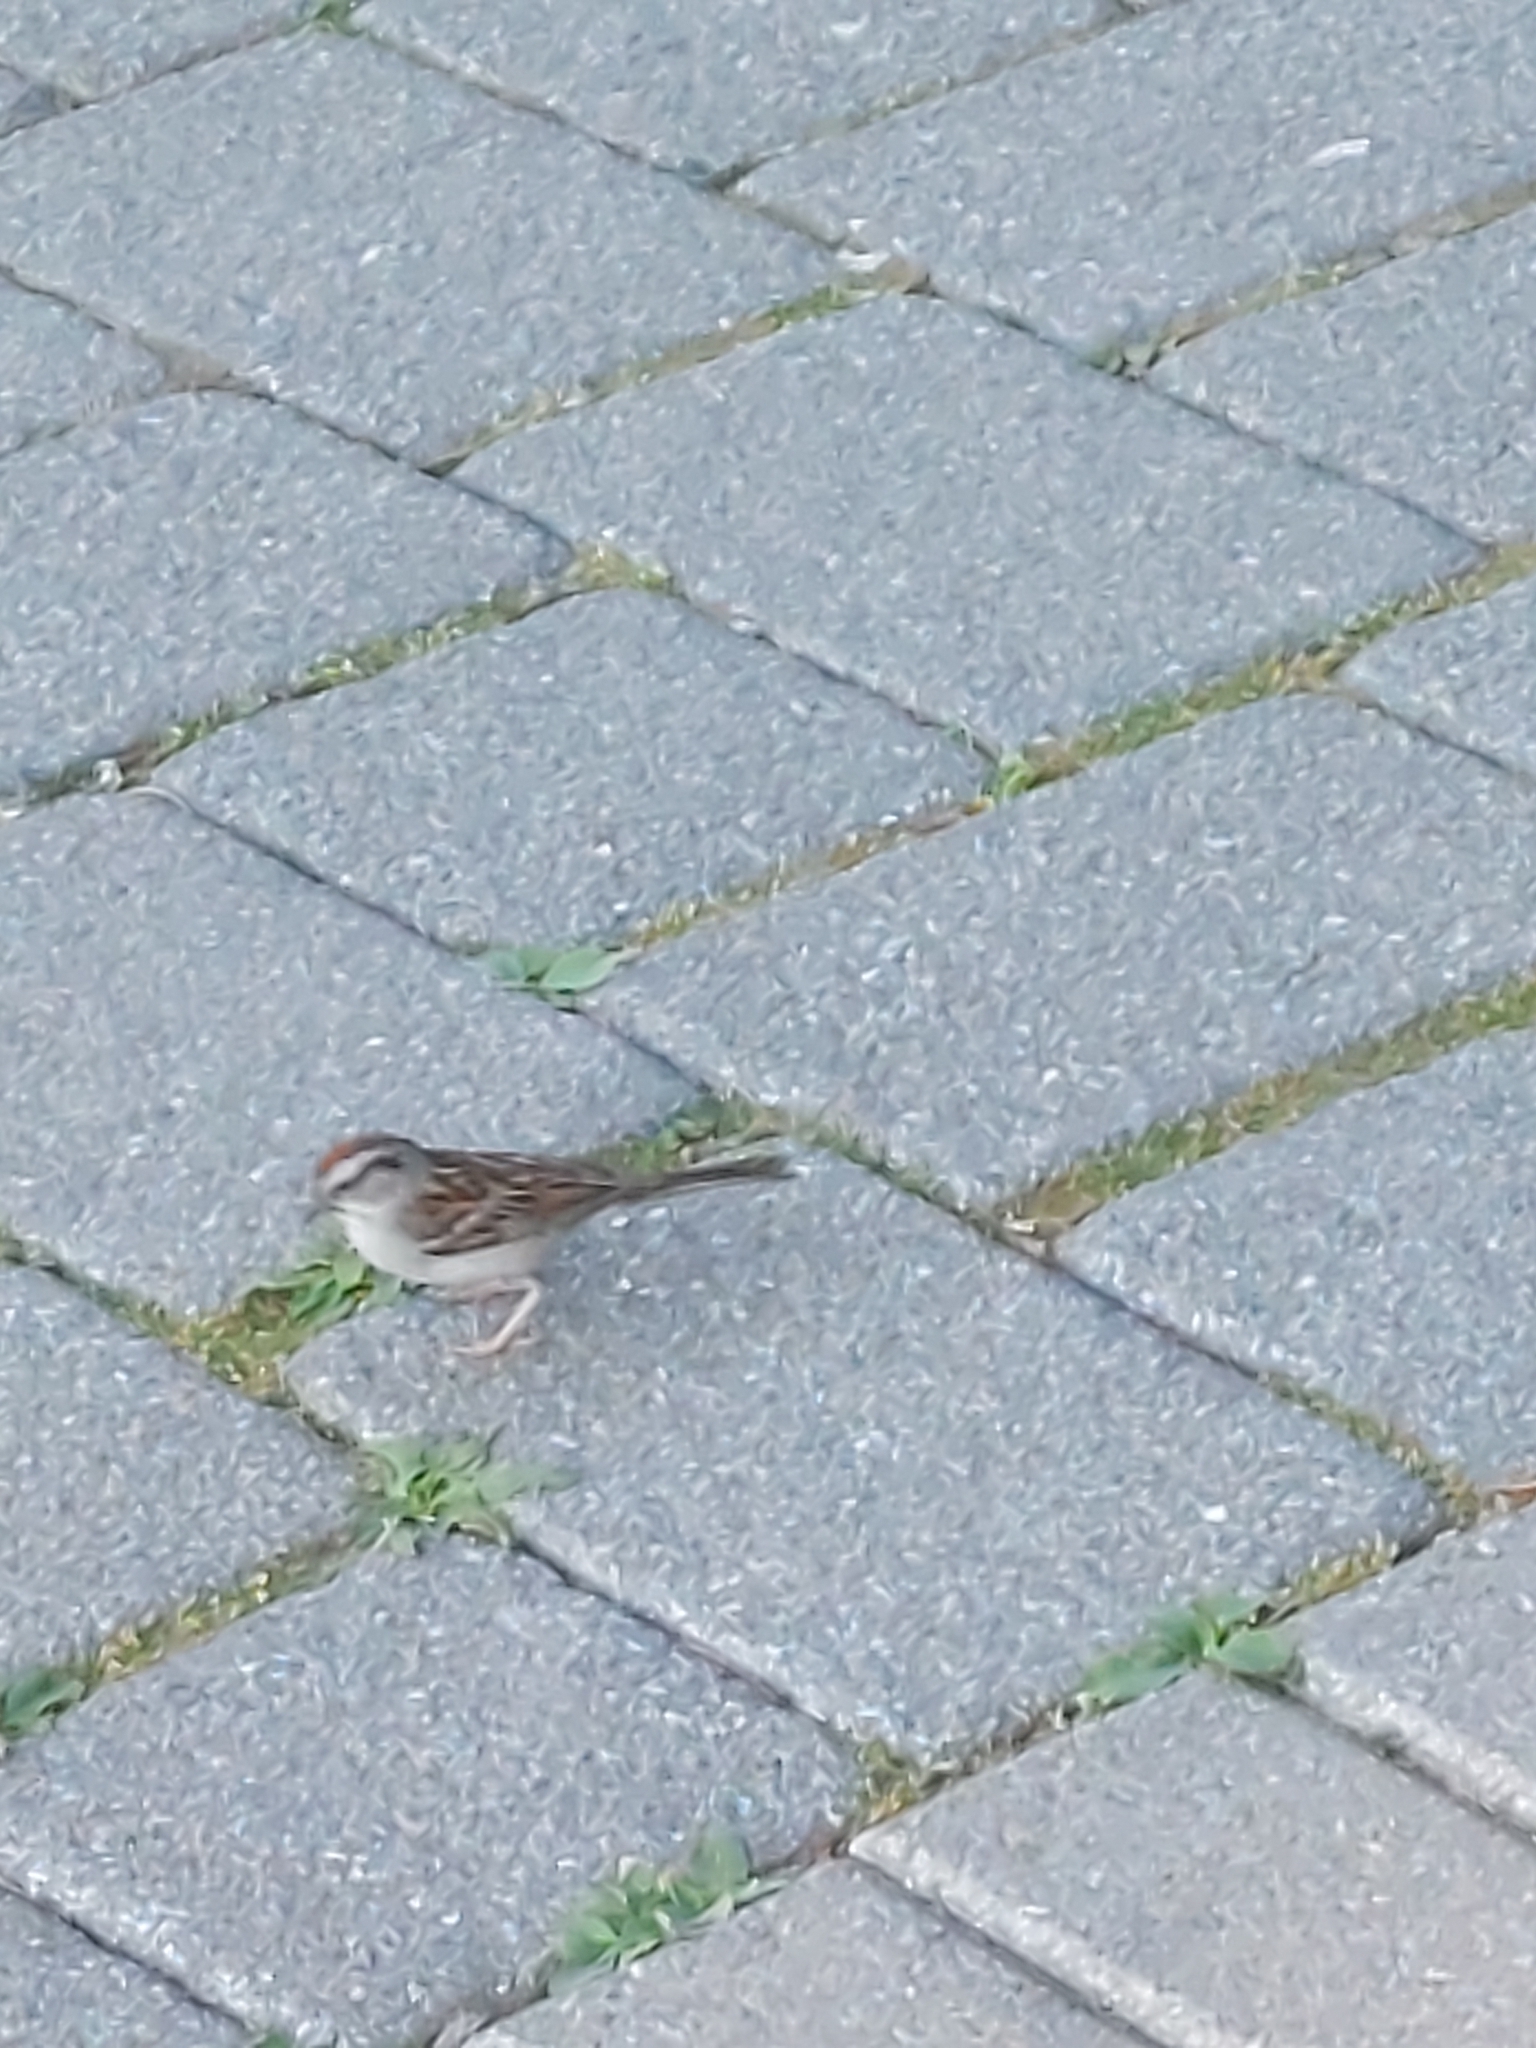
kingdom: Animalia
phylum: Chordata
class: Aves
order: Passeriformes
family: Passerellidae
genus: Spizella
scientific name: Spizella passerina
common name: Chipping sparrow
